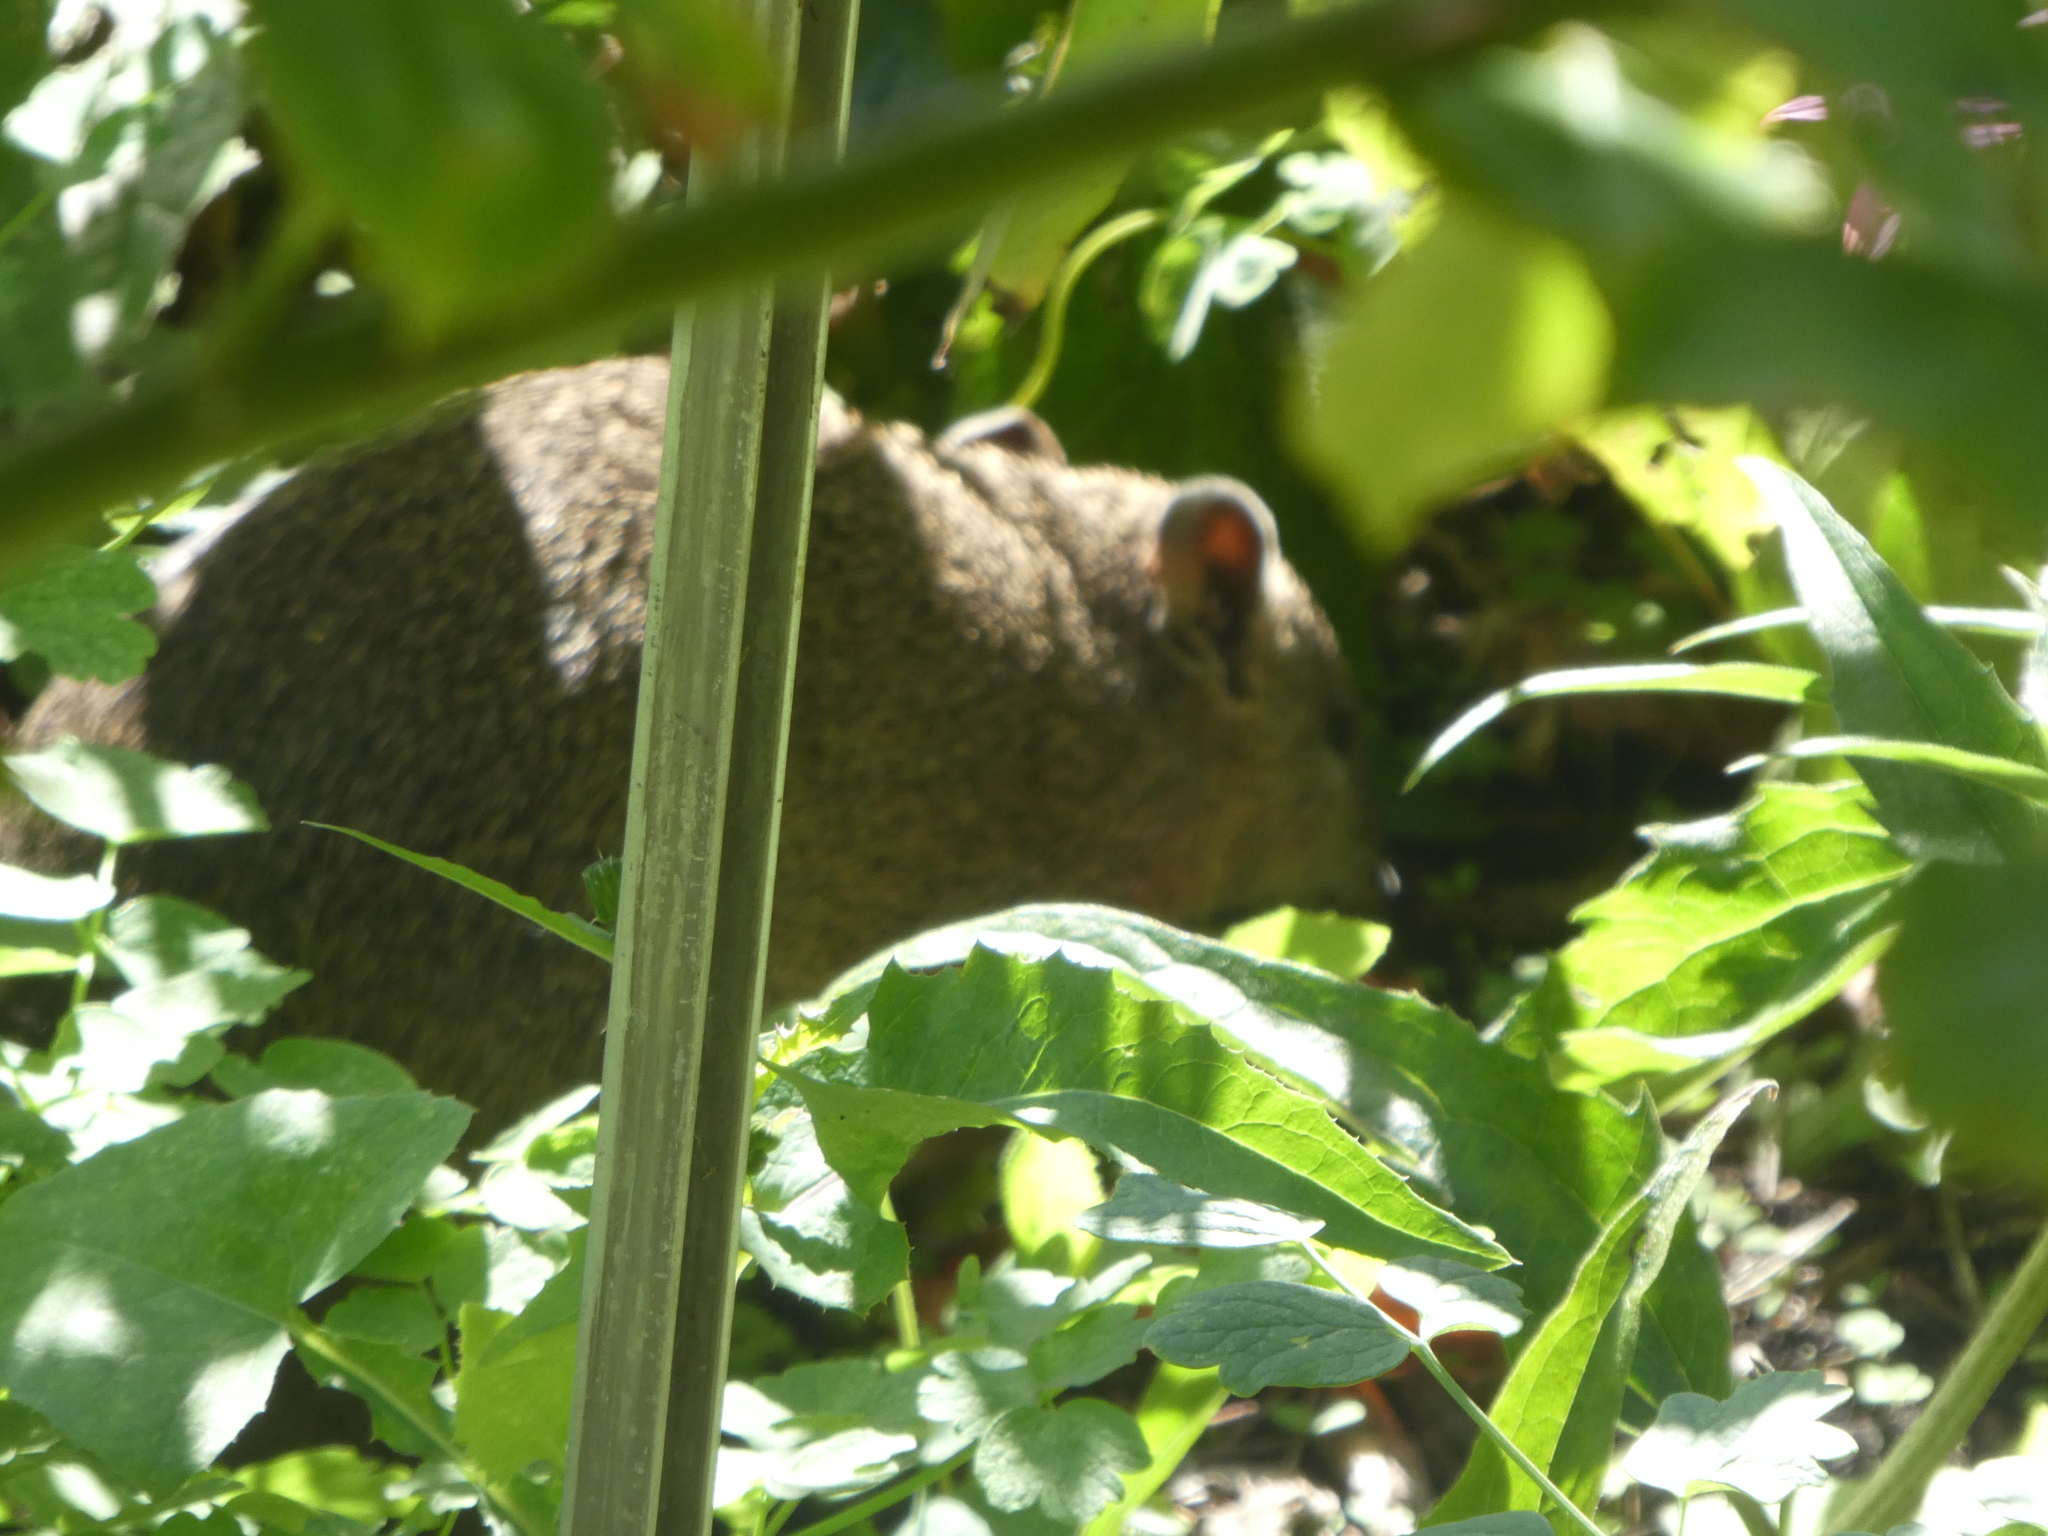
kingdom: Animalia
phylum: Chordata
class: Mammalia
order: Peramelemorphia
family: Peramelidae
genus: Isoodon
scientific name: Isoodon obesulus
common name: Southern brown bandicoot
